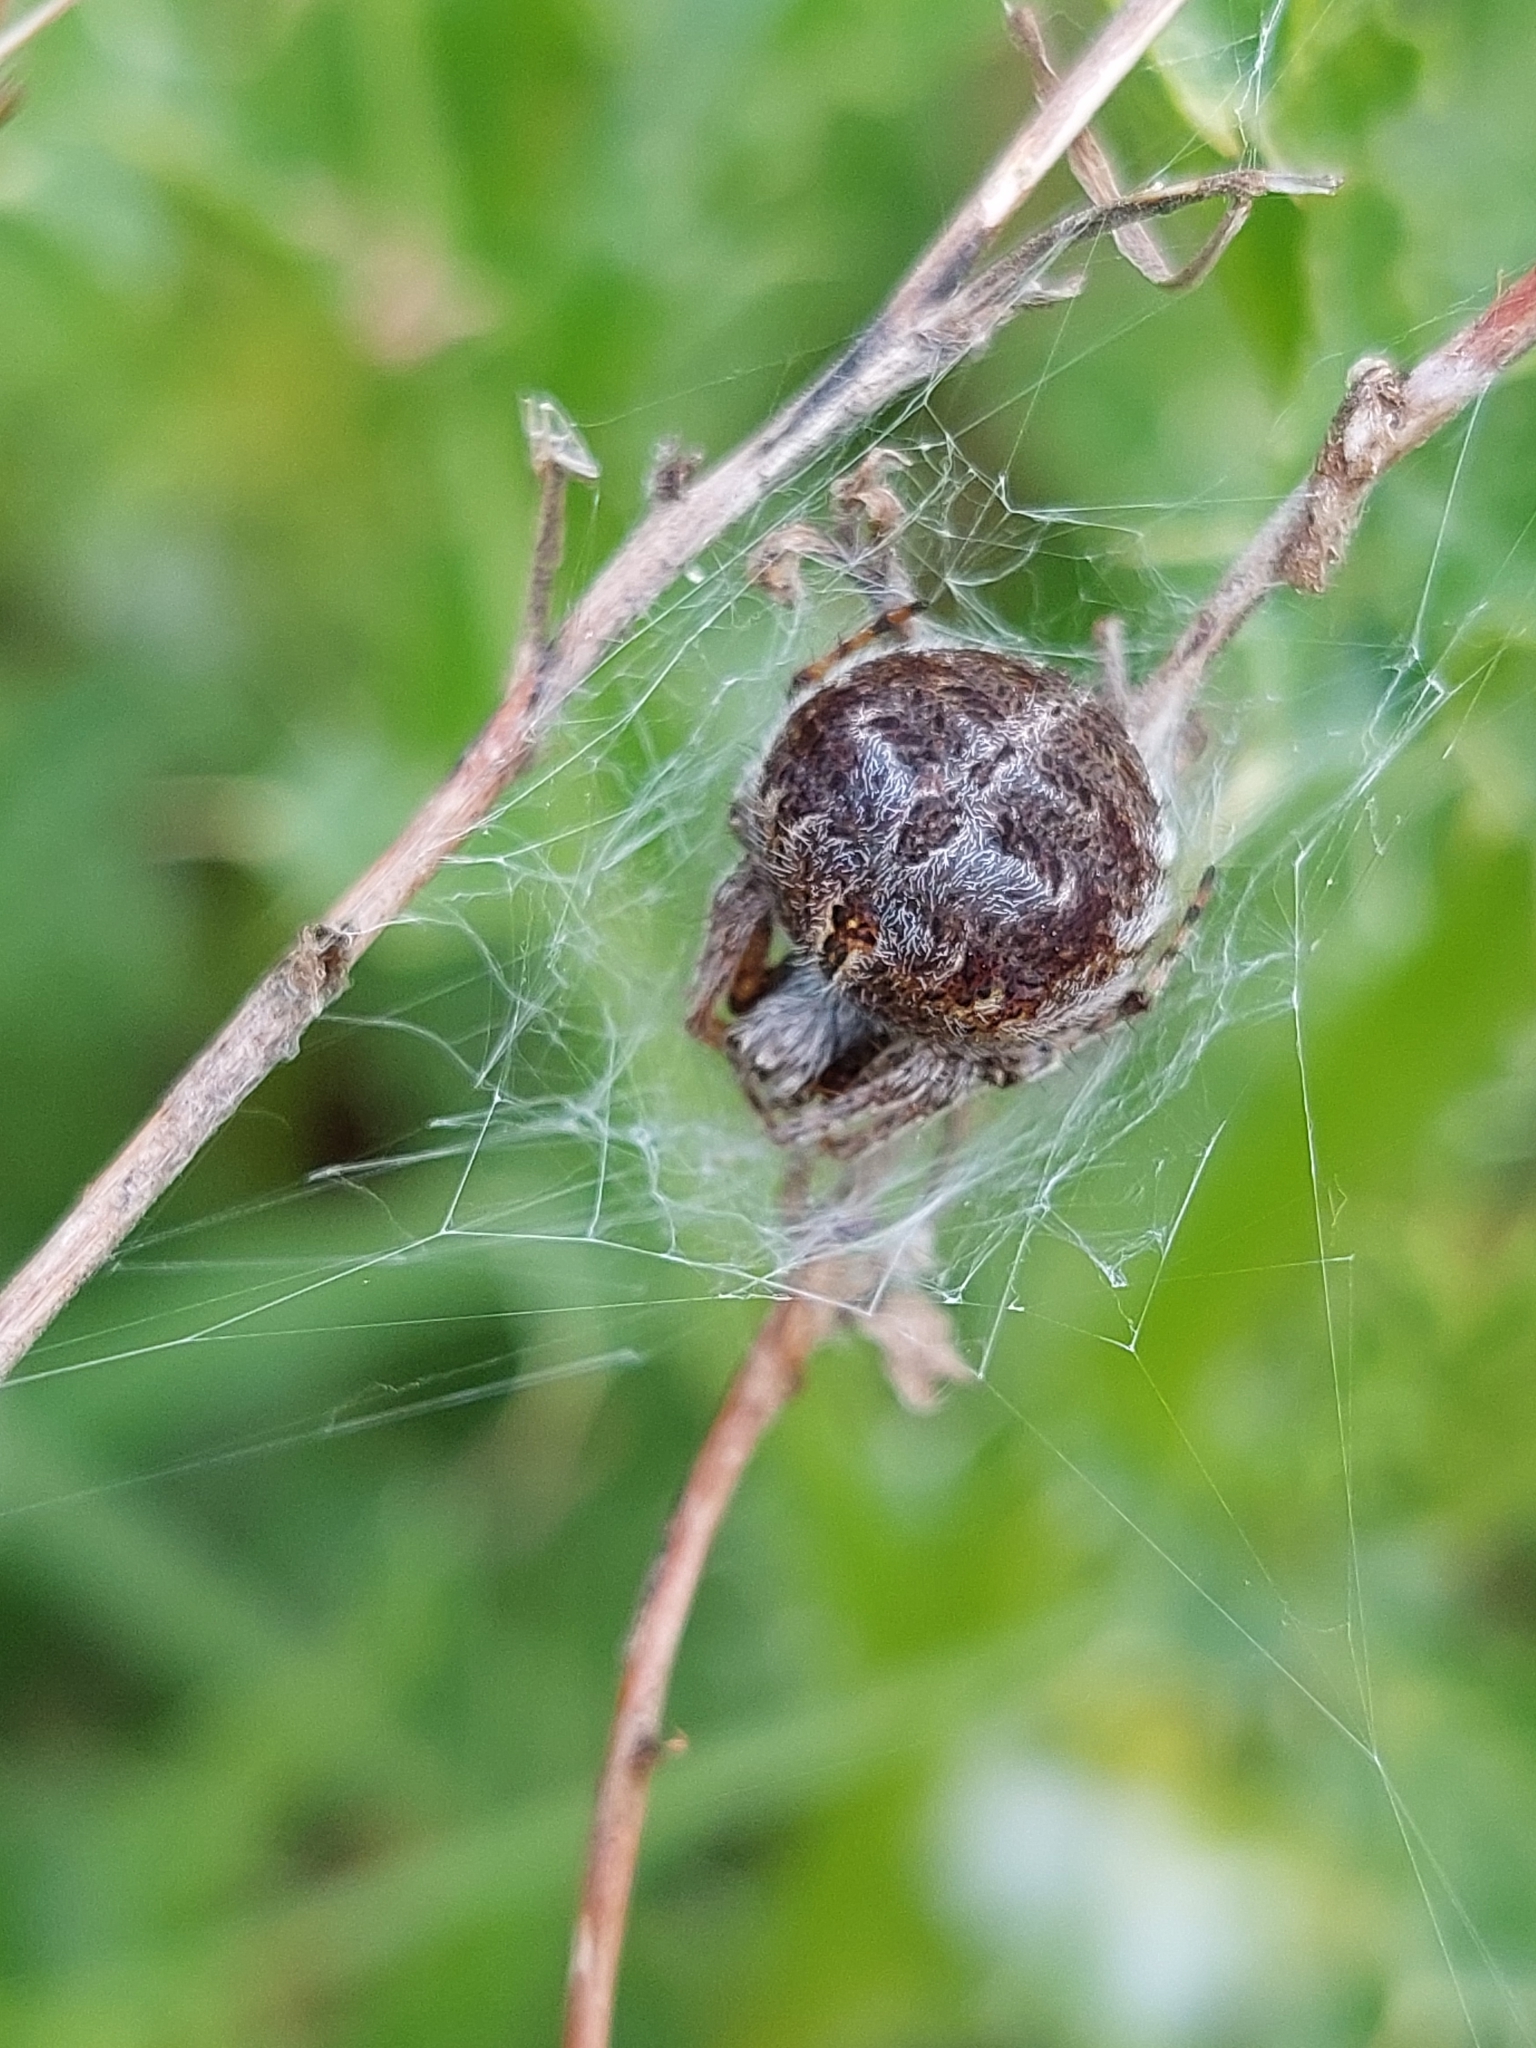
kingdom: Animalia
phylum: Arthropoda
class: Arachnida
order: Araneae
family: Araneidae
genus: Agalenatea
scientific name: Agalenatea redii
